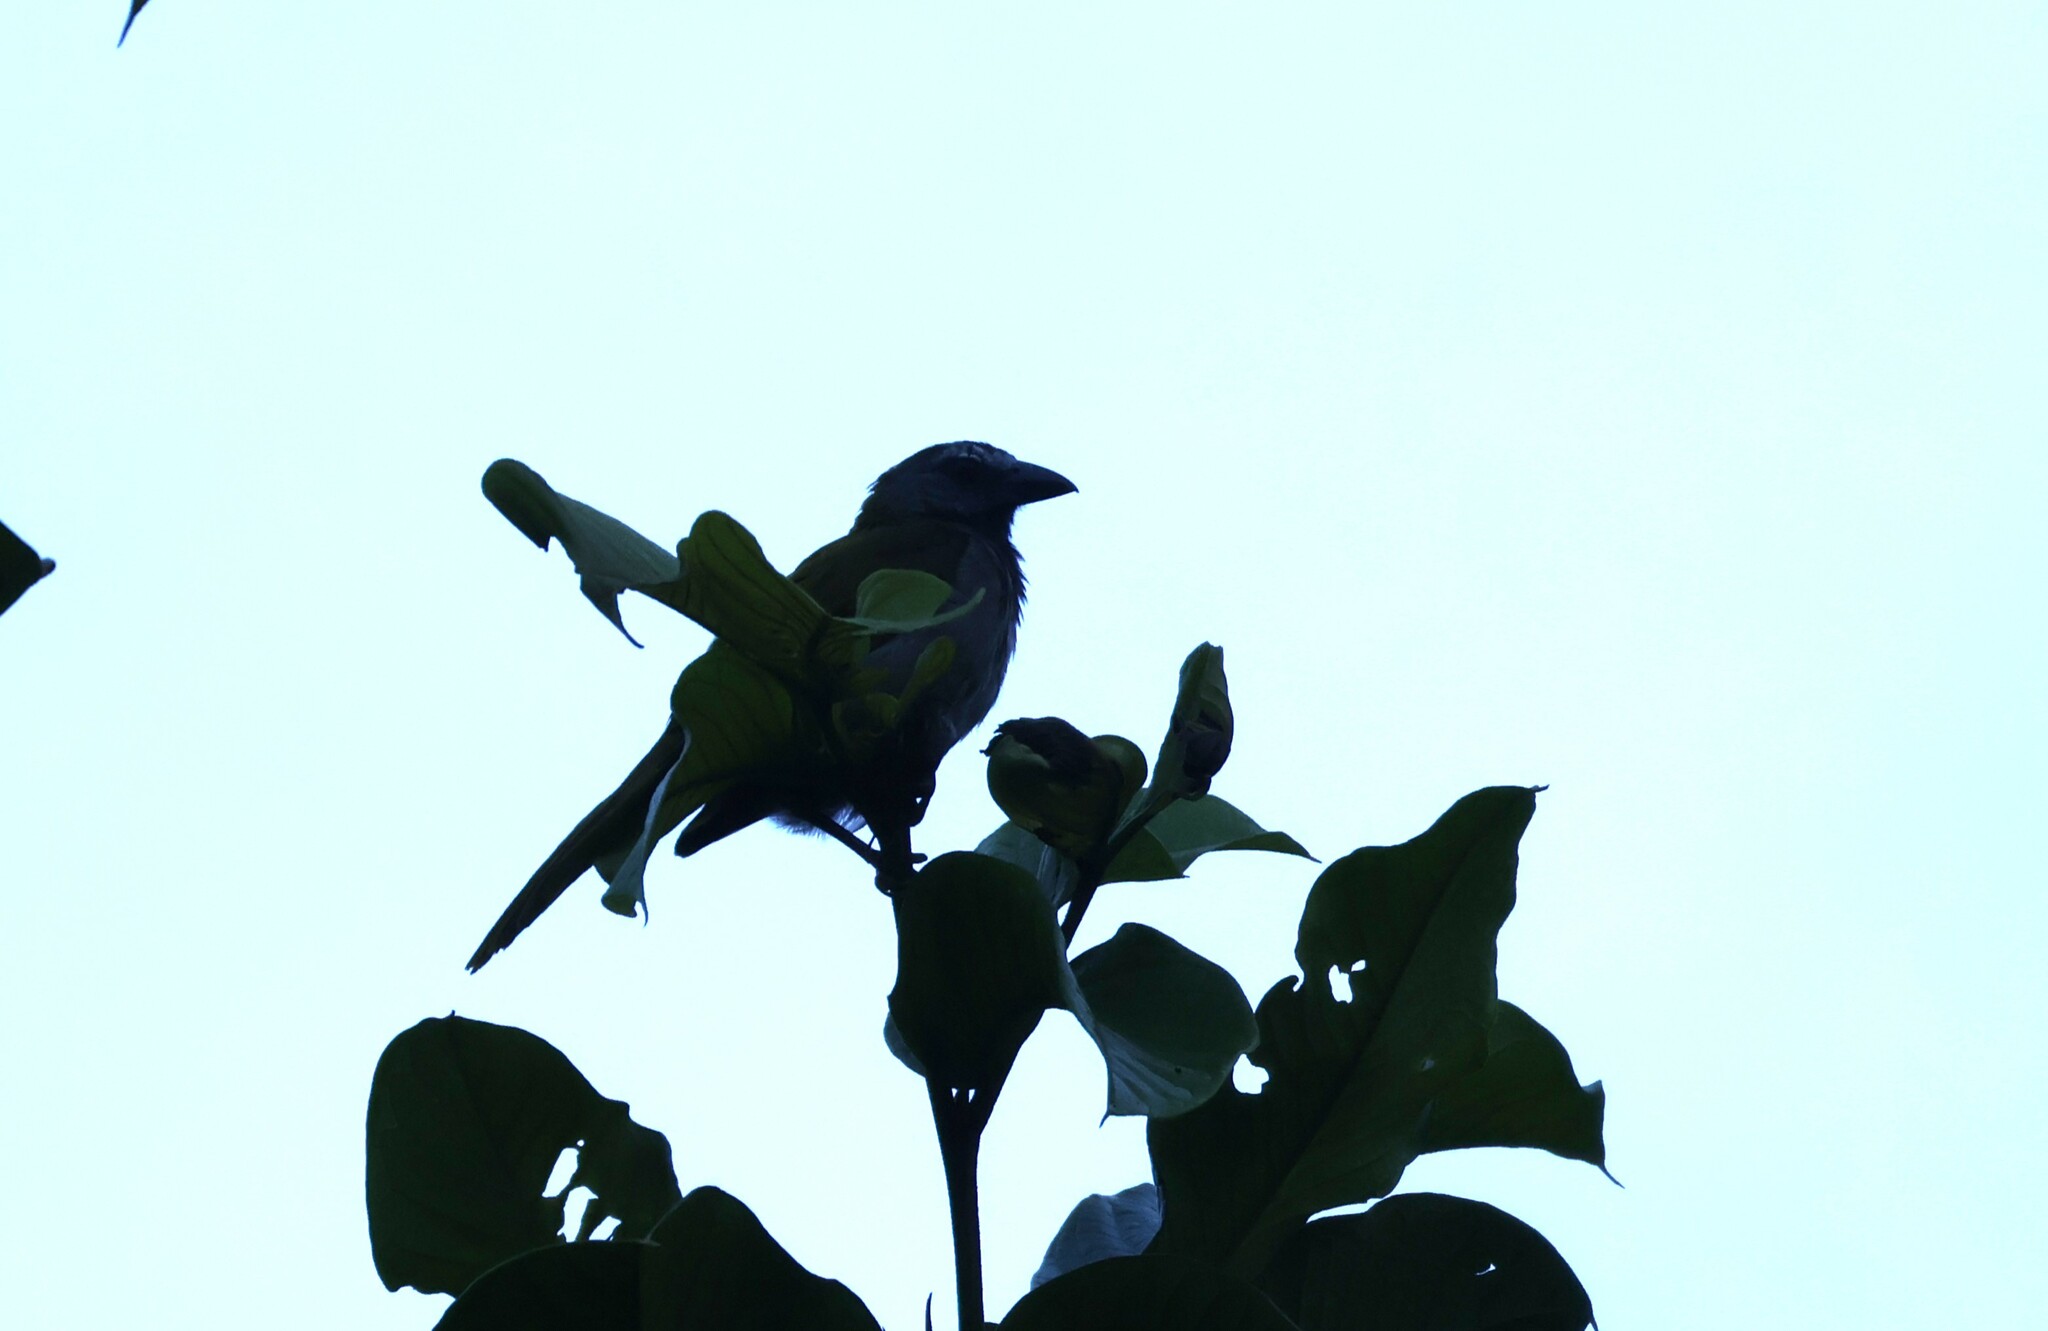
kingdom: Animalia
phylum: Chordata
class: Aves
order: Passeriformes
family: Thraupidae
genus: Saltator
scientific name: Saltator maximus
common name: Buff-throated saltator
